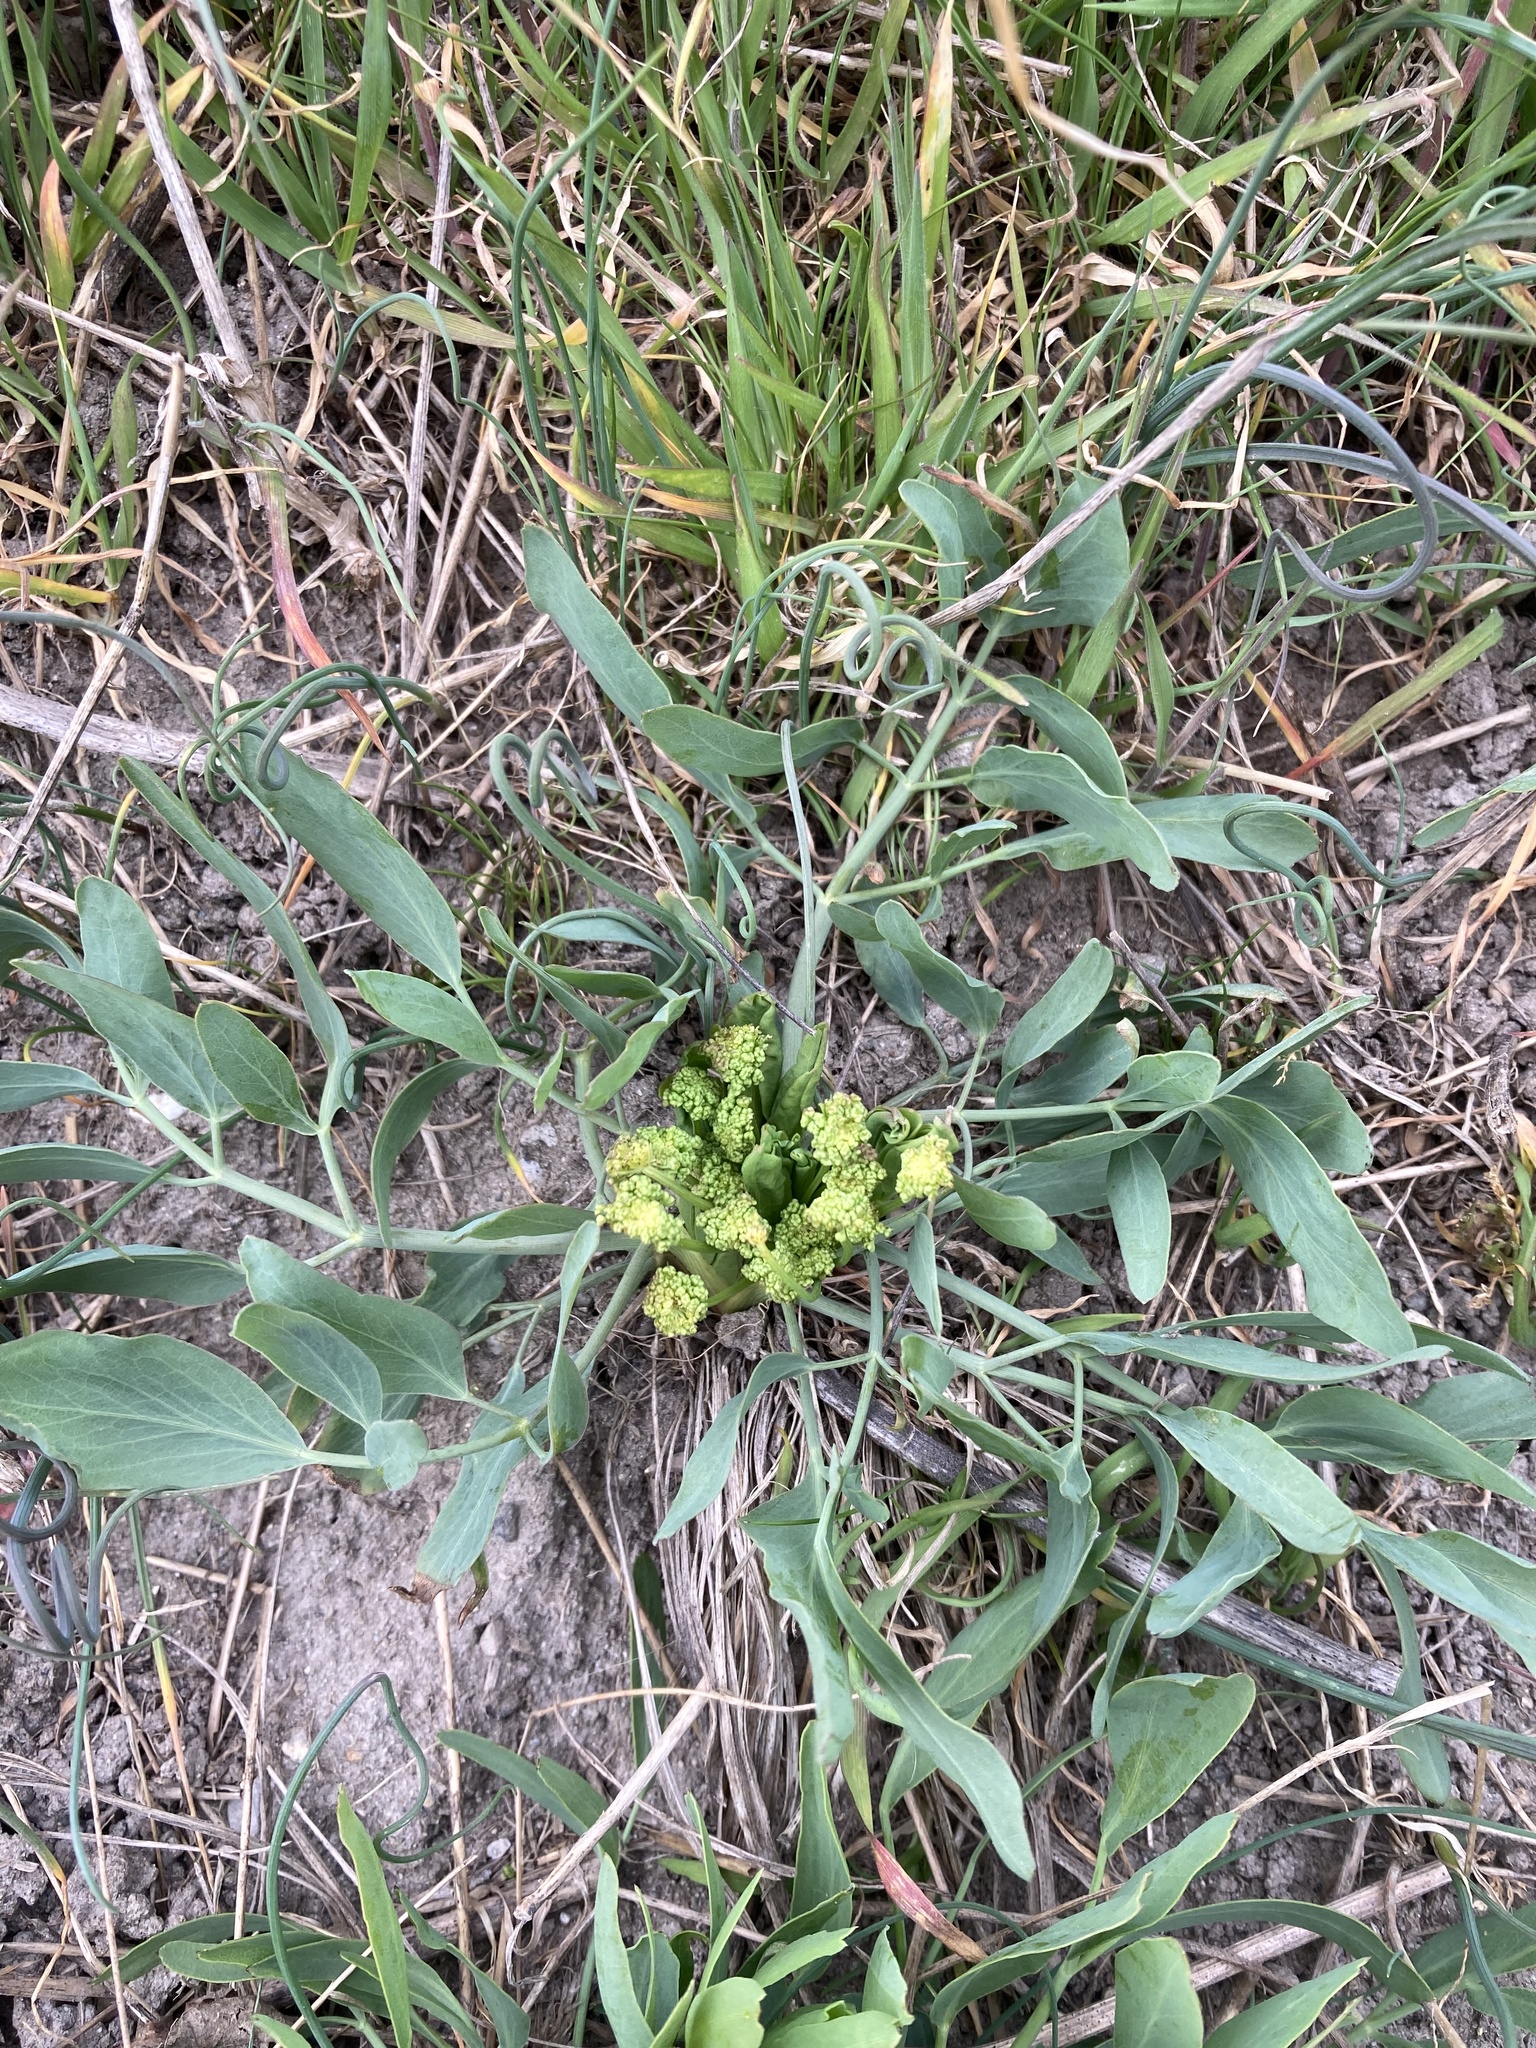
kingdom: Plantae
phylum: Tracheophyta
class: Magnoliopsida
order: Apiales
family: Apiaceae
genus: Lomatium
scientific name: Lomatium nudicaule
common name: Pestle lomatium
